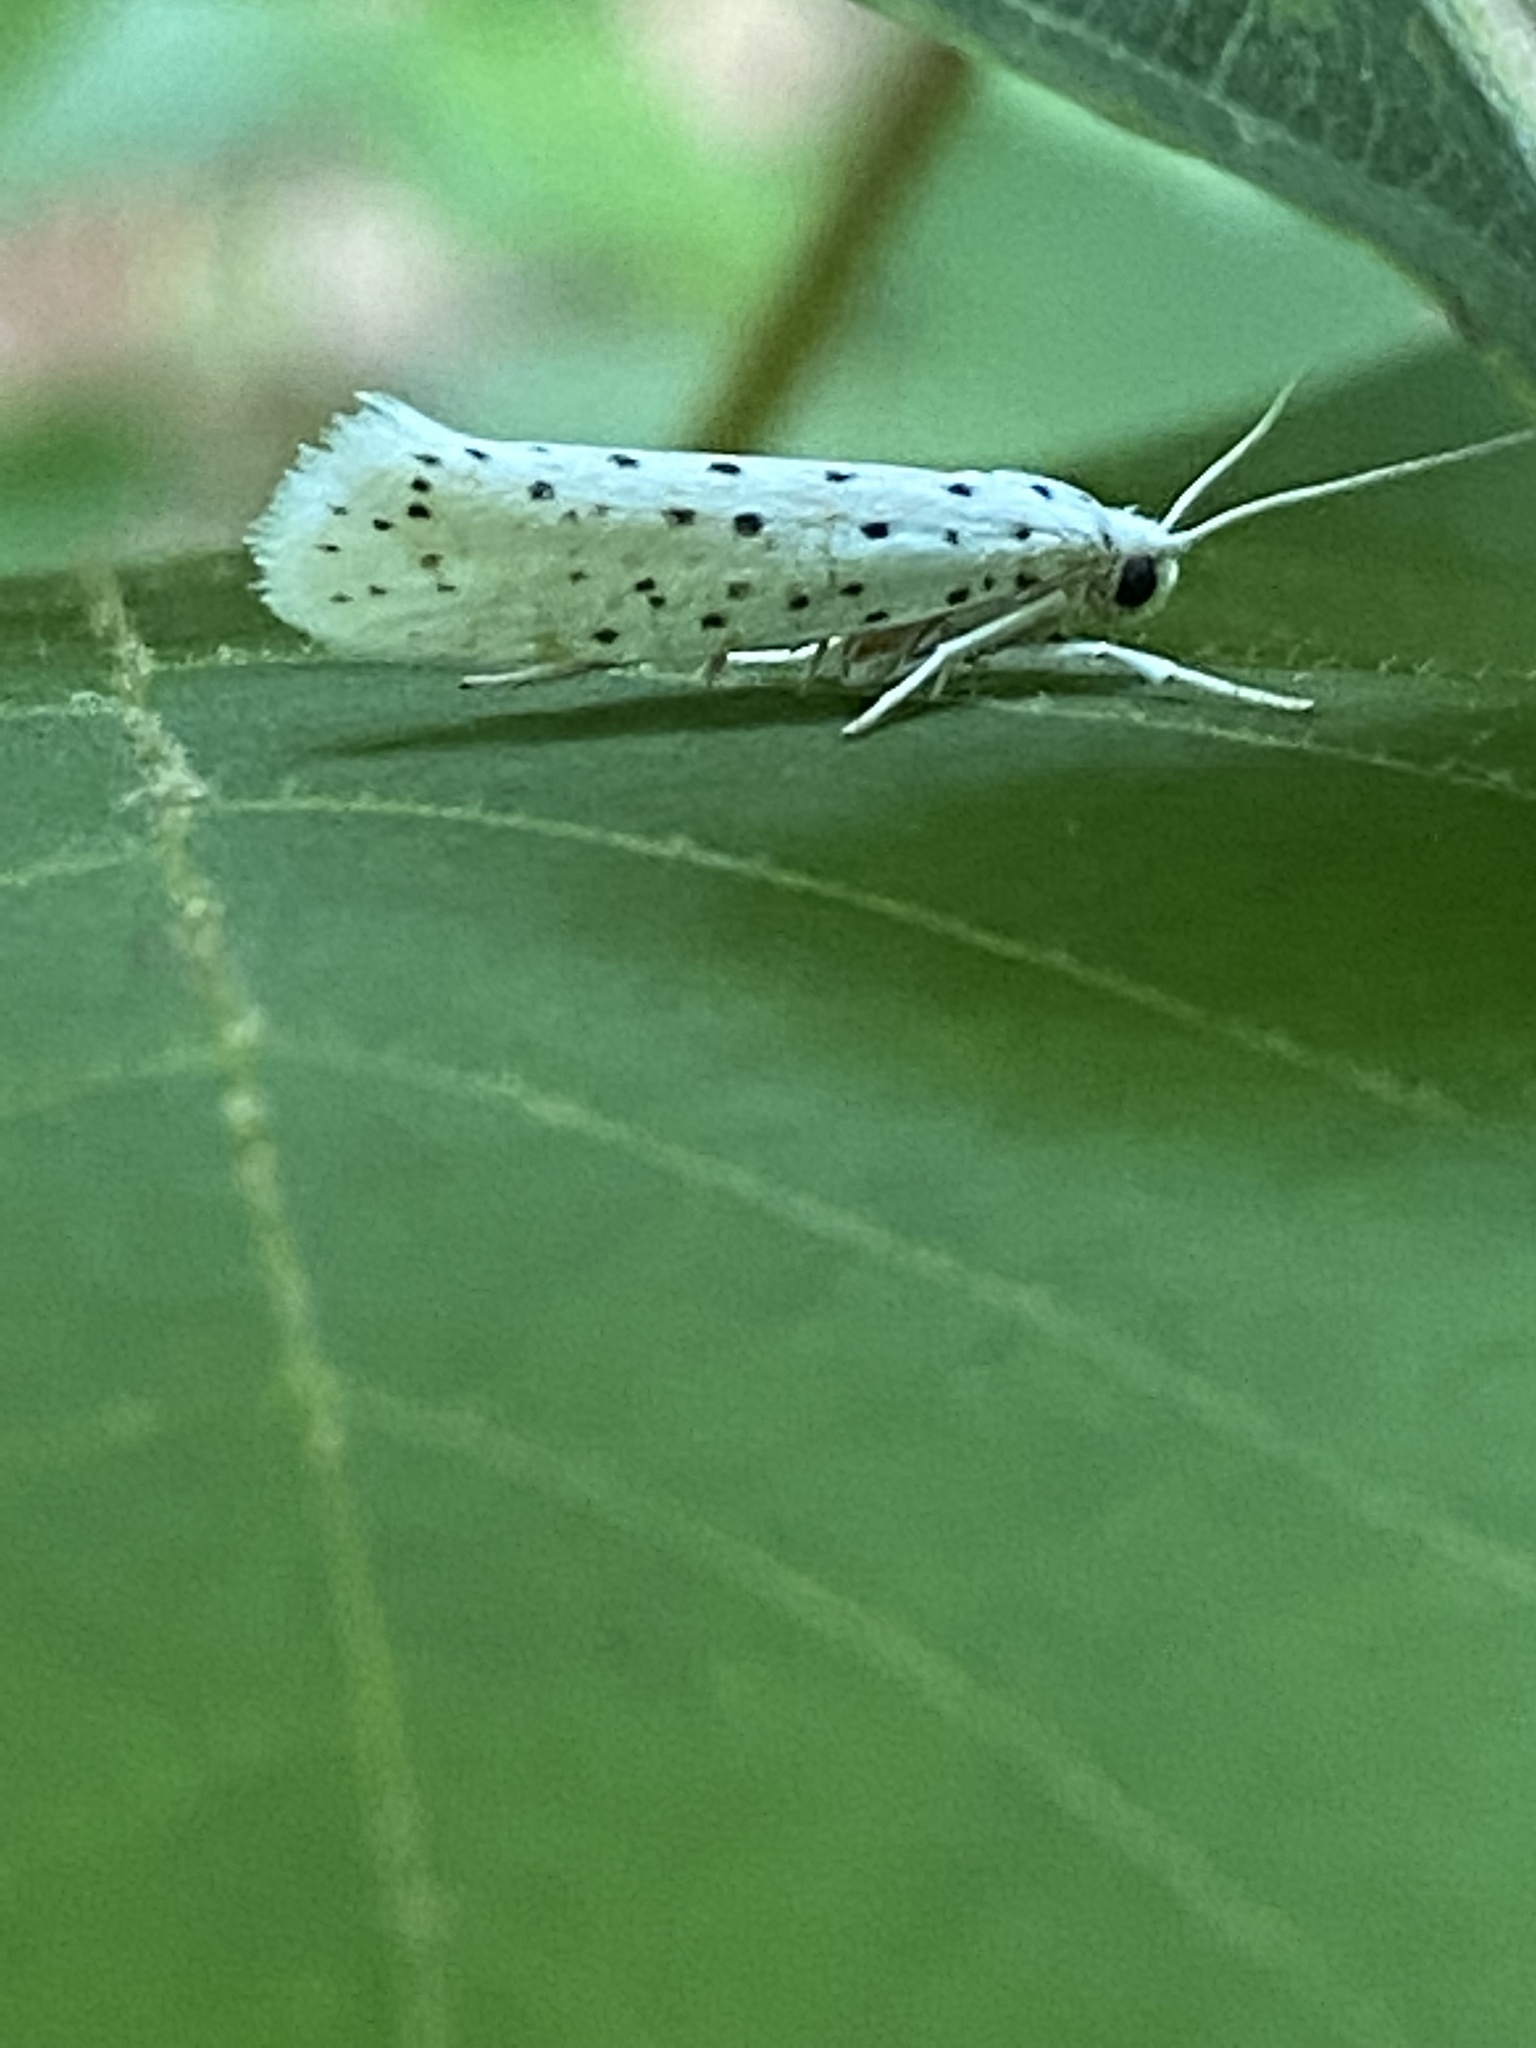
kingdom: Animalia
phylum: Arthropoda
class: Insecta
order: Lepidoptera
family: Yponomeutidae
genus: Yponomeuta
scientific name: Yponomeuta multipunctella
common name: American ermine moth
